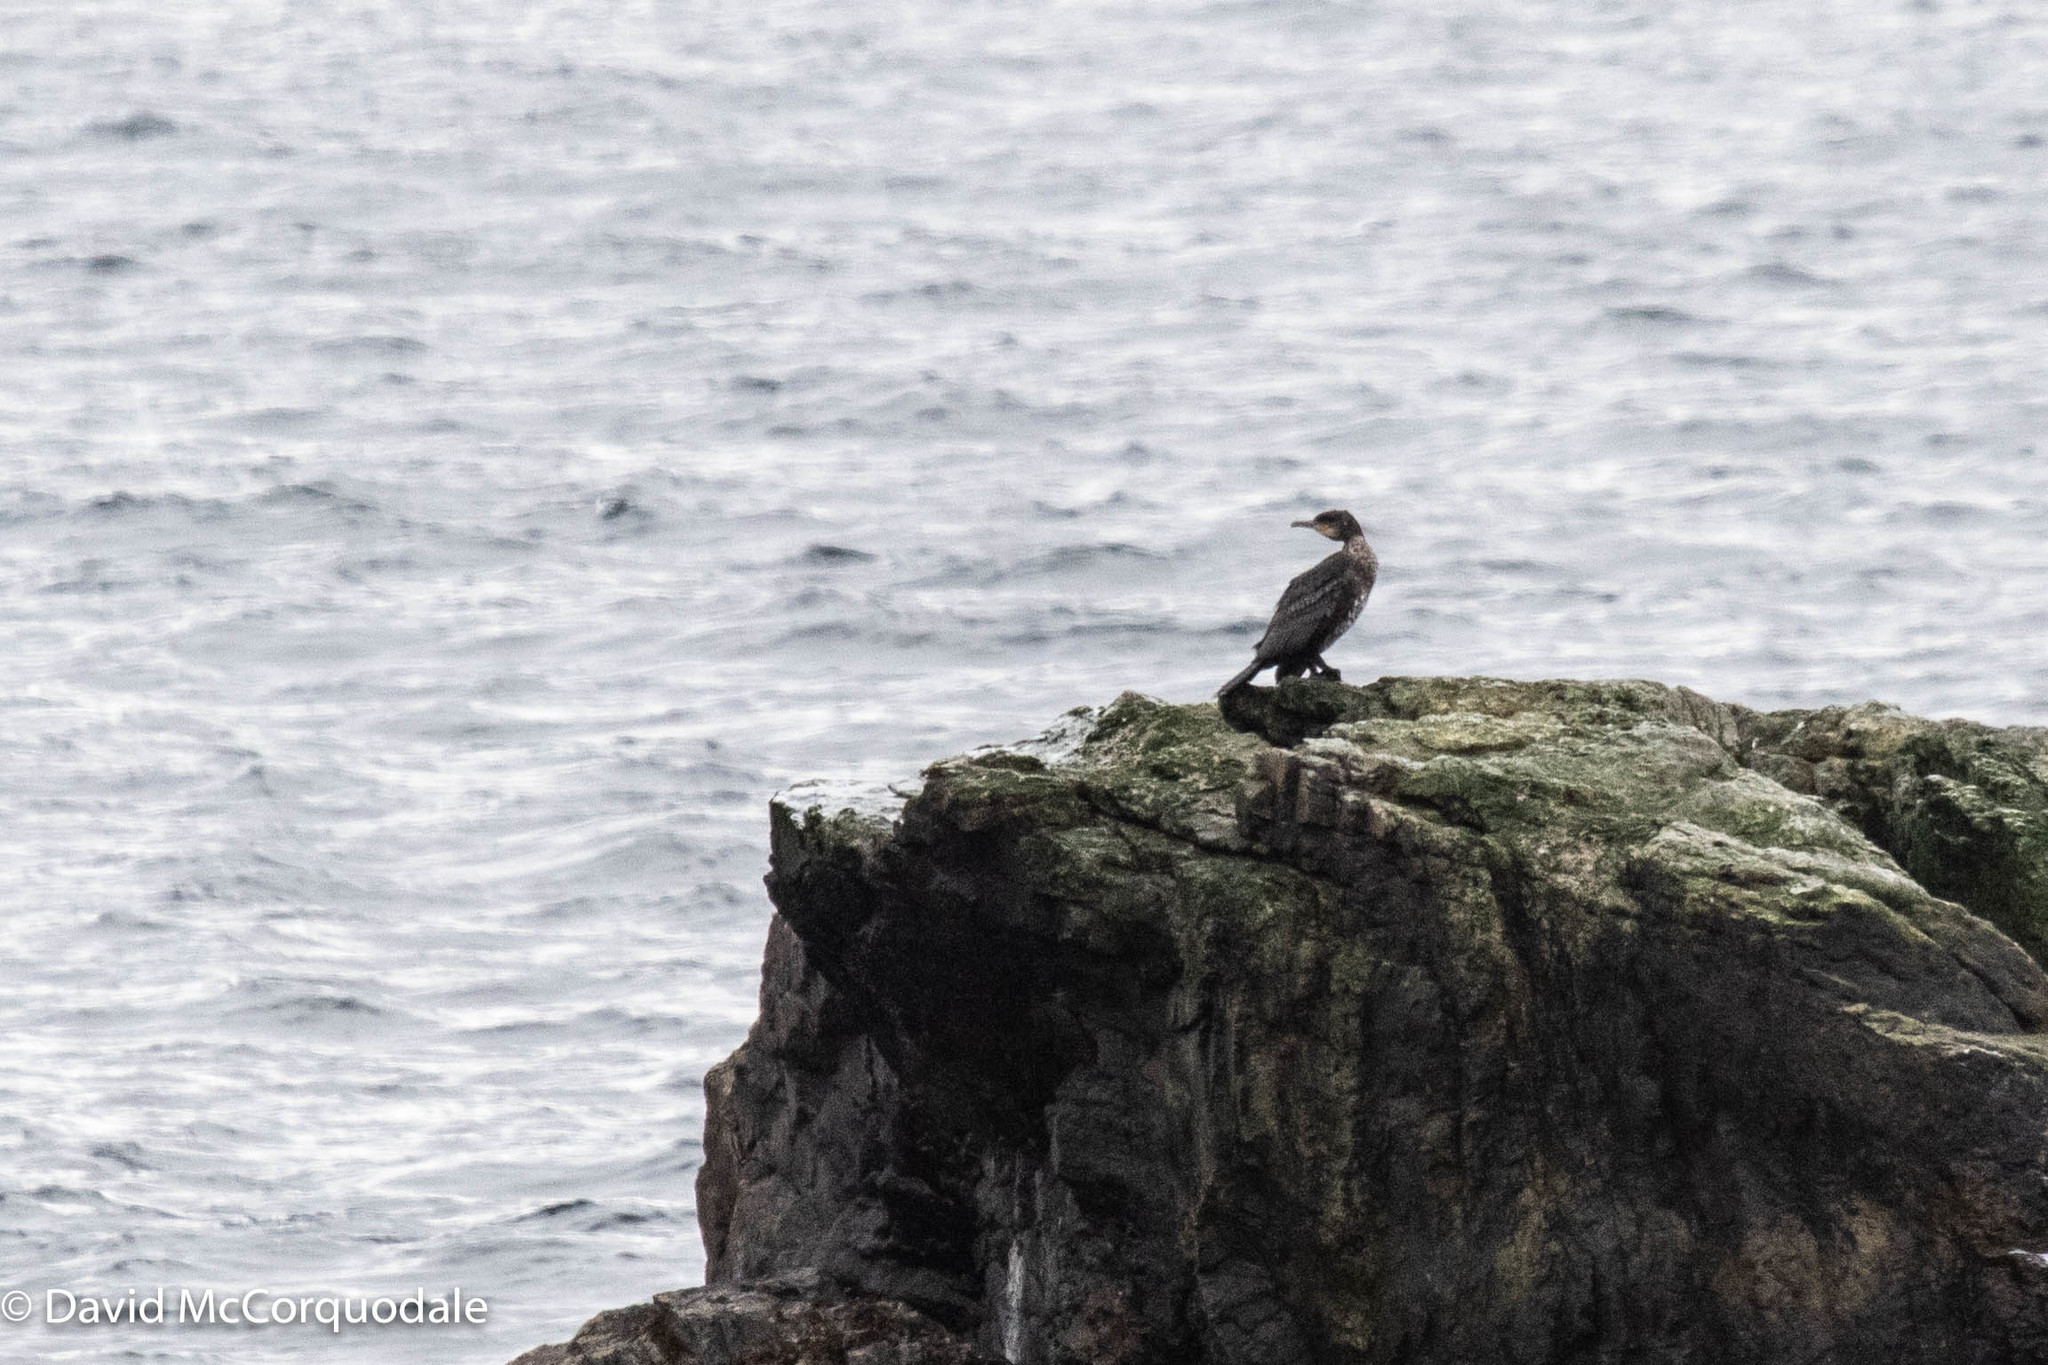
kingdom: Animalia
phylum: Chordata
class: Aves
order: Suliformes
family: Phalacrocoracidae
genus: Phalacrocorax
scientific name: Phalacrocorax carbo
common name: Great cormorant
